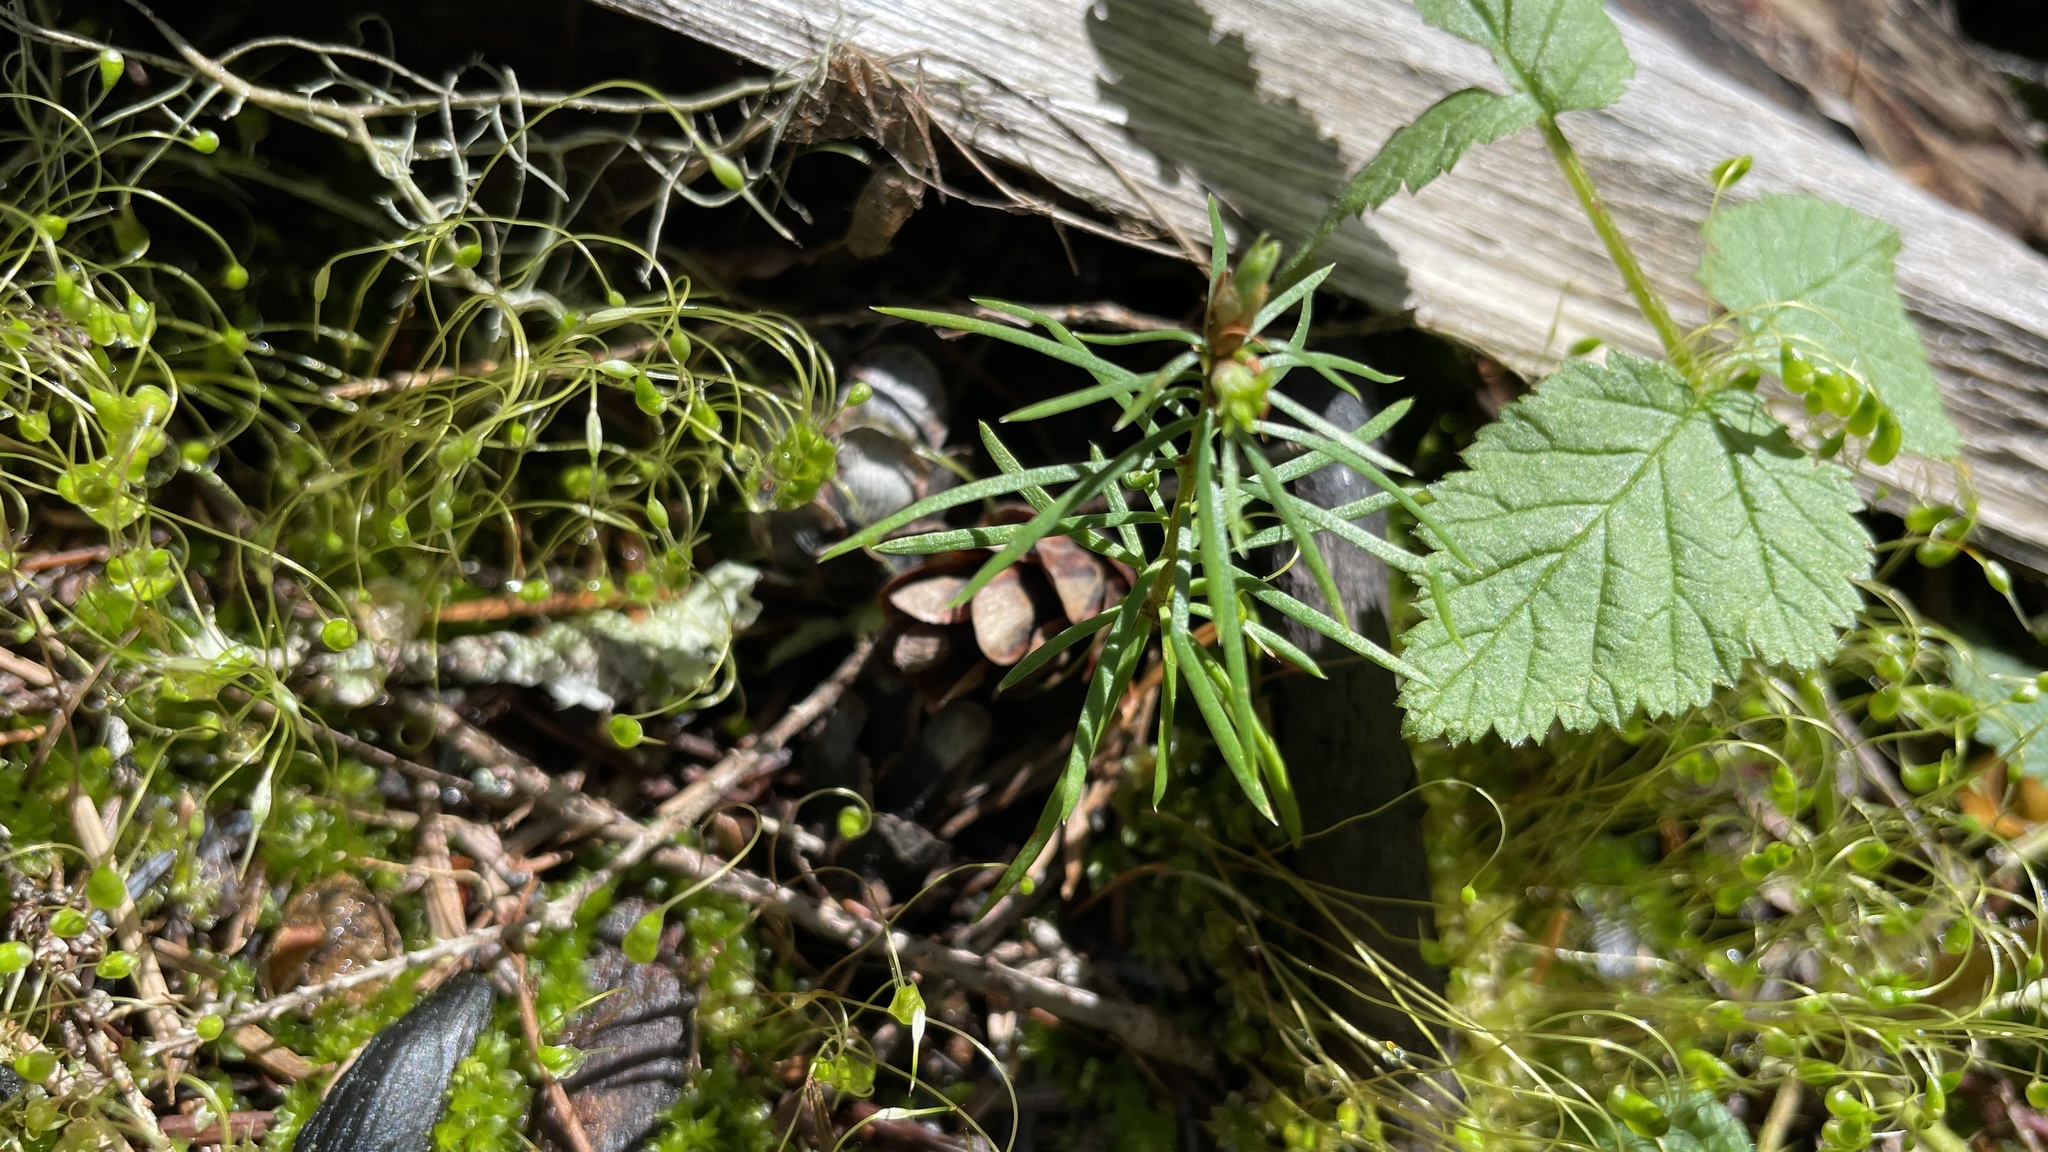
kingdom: Plantae
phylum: Tracheophyta
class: Pinopsida
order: Pinales
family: Pinaceae
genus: Pseudotsuga
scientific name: Pseudotsuga menziesii
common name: Douglas fir
